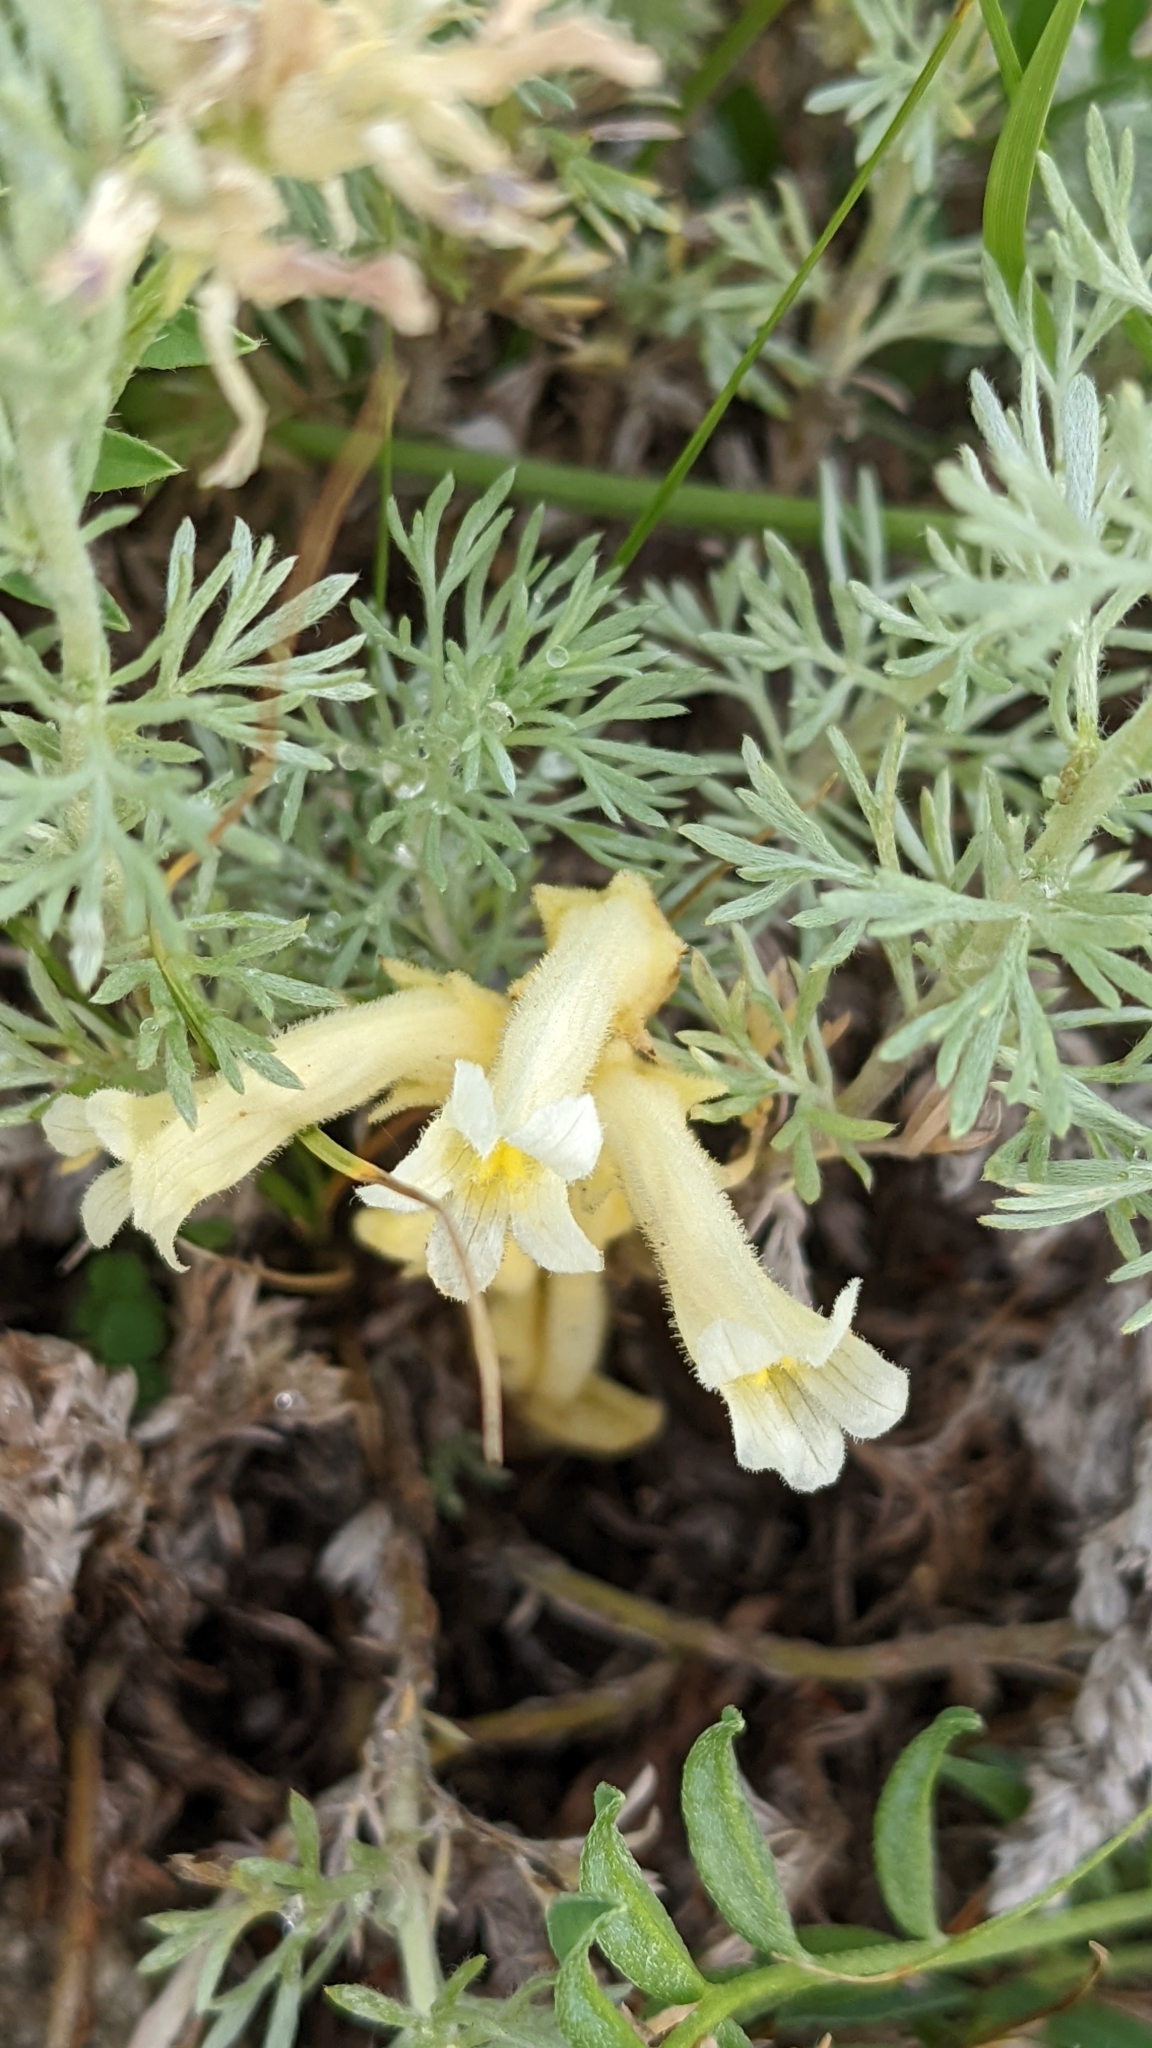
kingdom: Plantae
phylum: Tracheophyta
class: Magnoliopsida
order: Lamiales
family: Orobanchaceae
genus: Aphyllon
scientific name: Aphyllon fasciculatum
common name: Clustered broomrape
